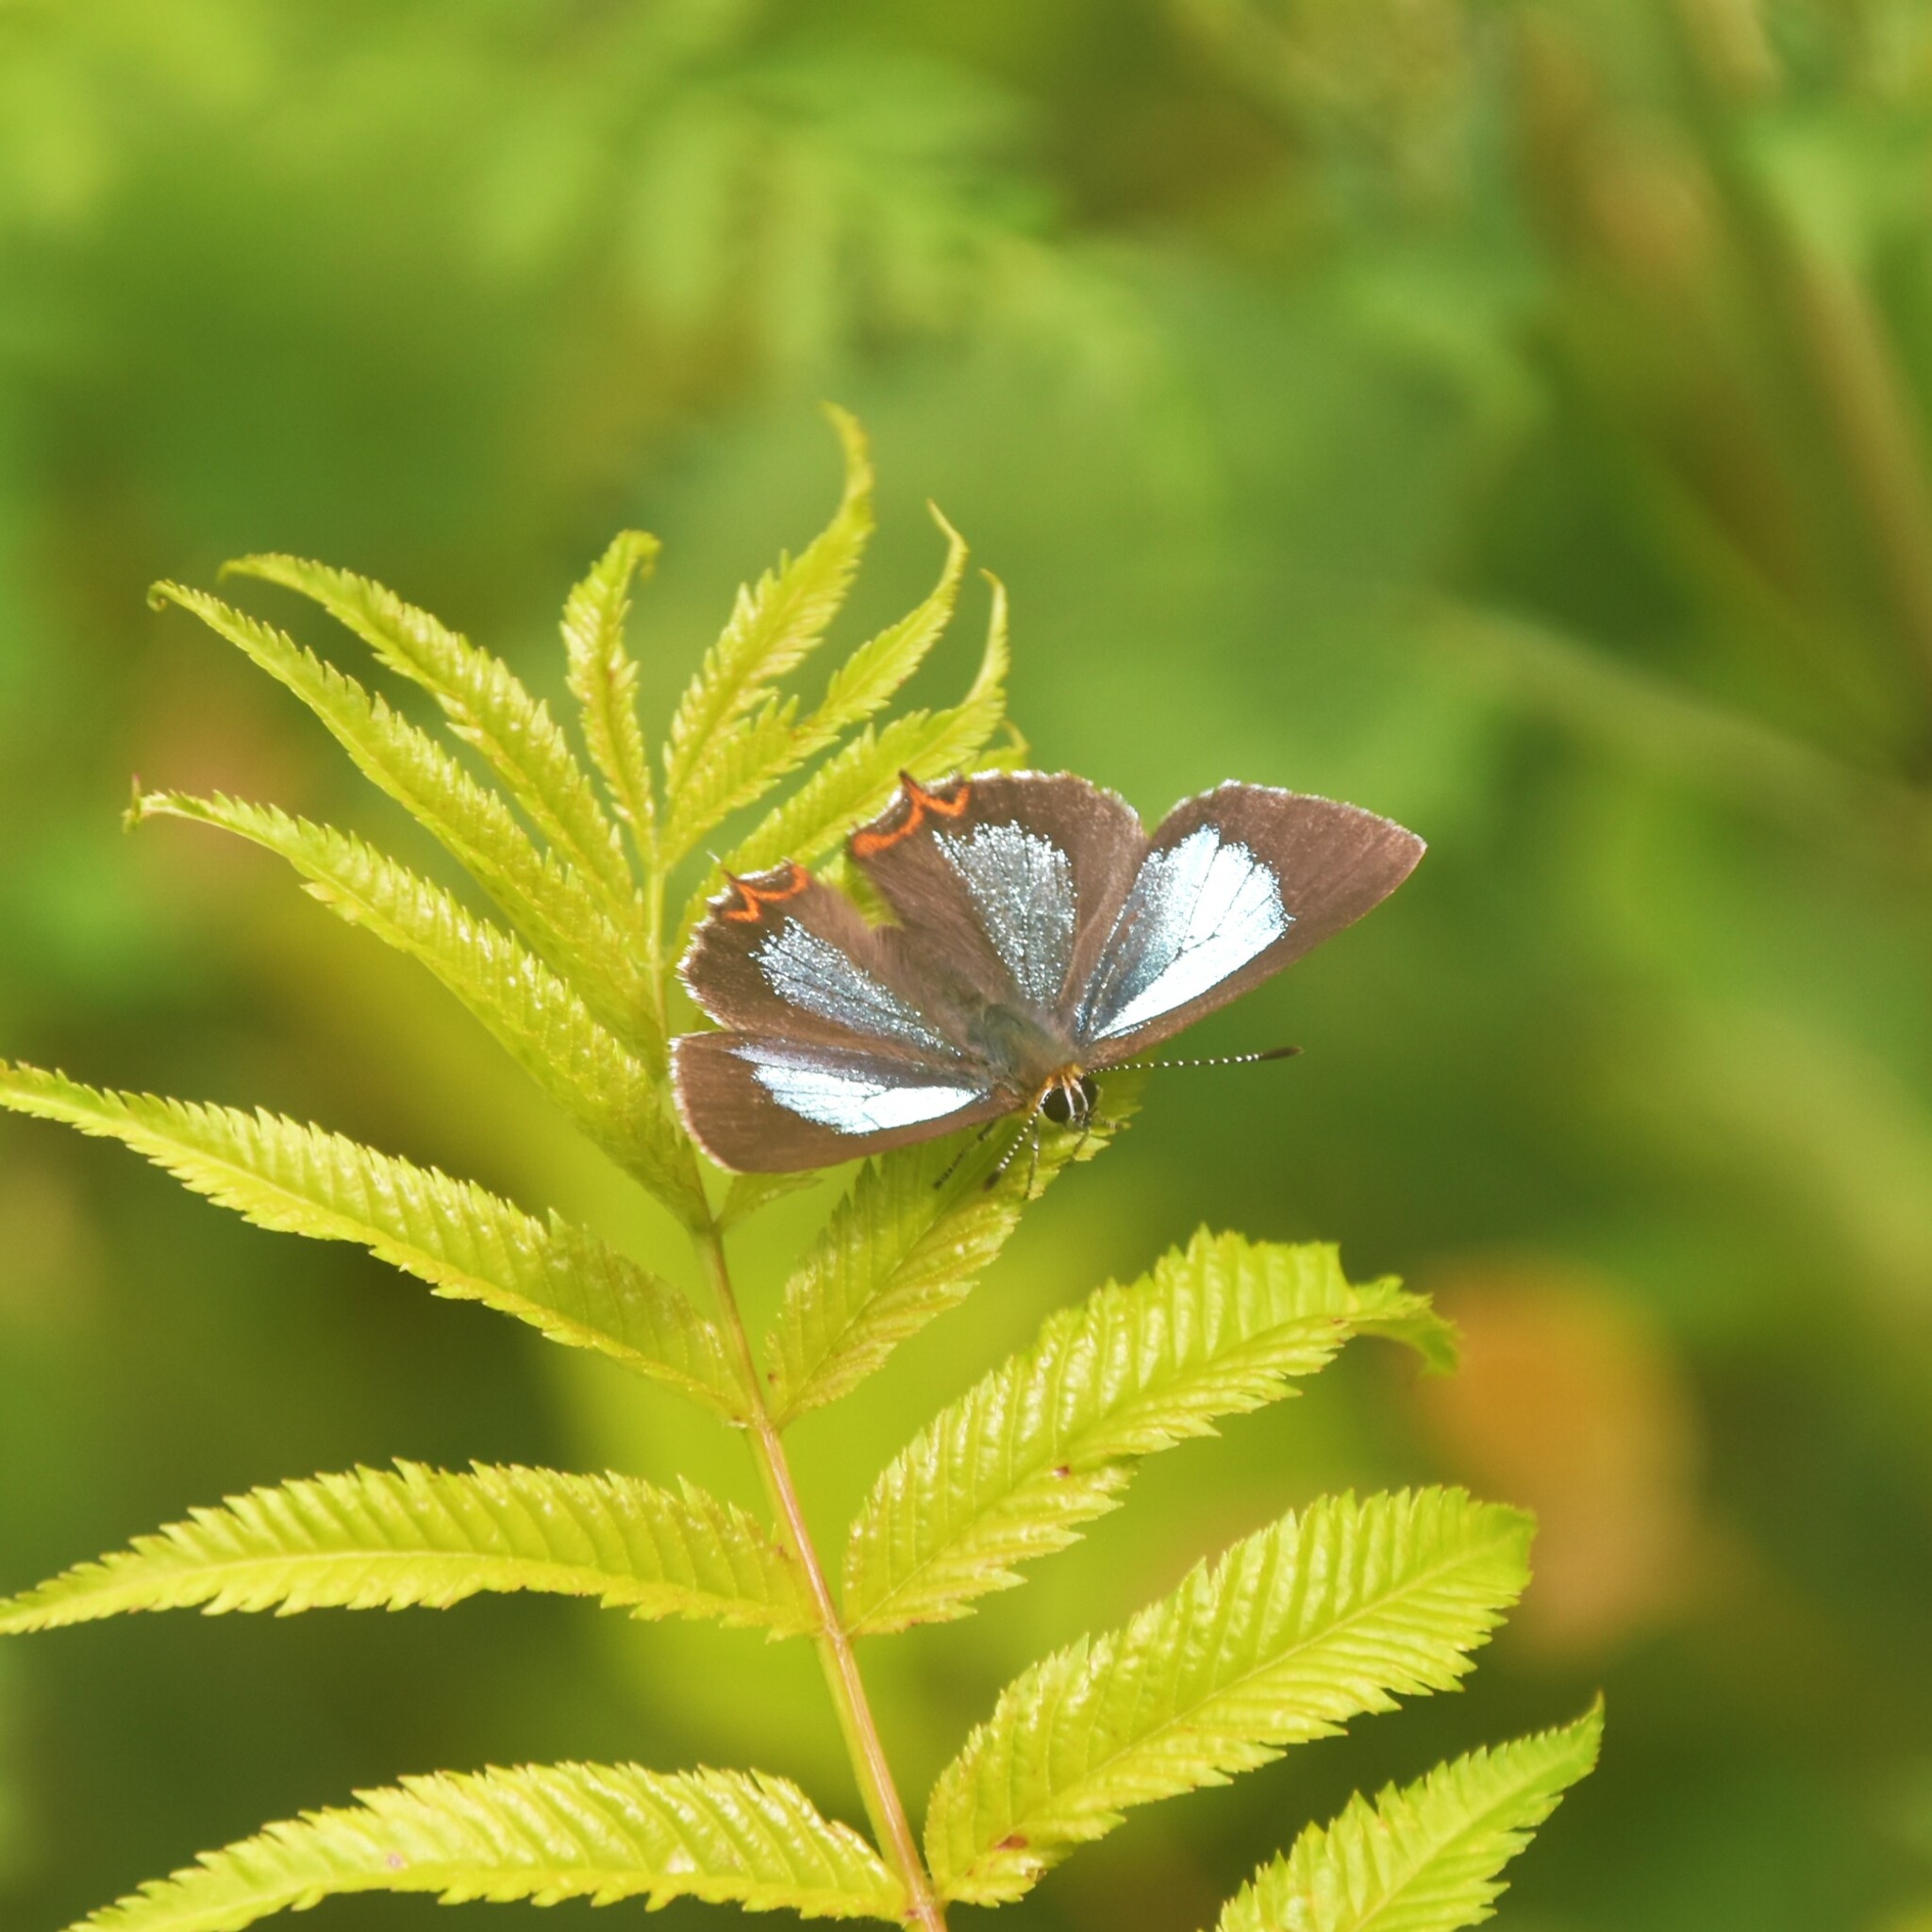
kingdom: Animalia
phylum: Arthropoda
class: Insecta
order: Lepidoptera
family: Lycaenidae
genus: Heliophorus
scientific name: Heliophorus
